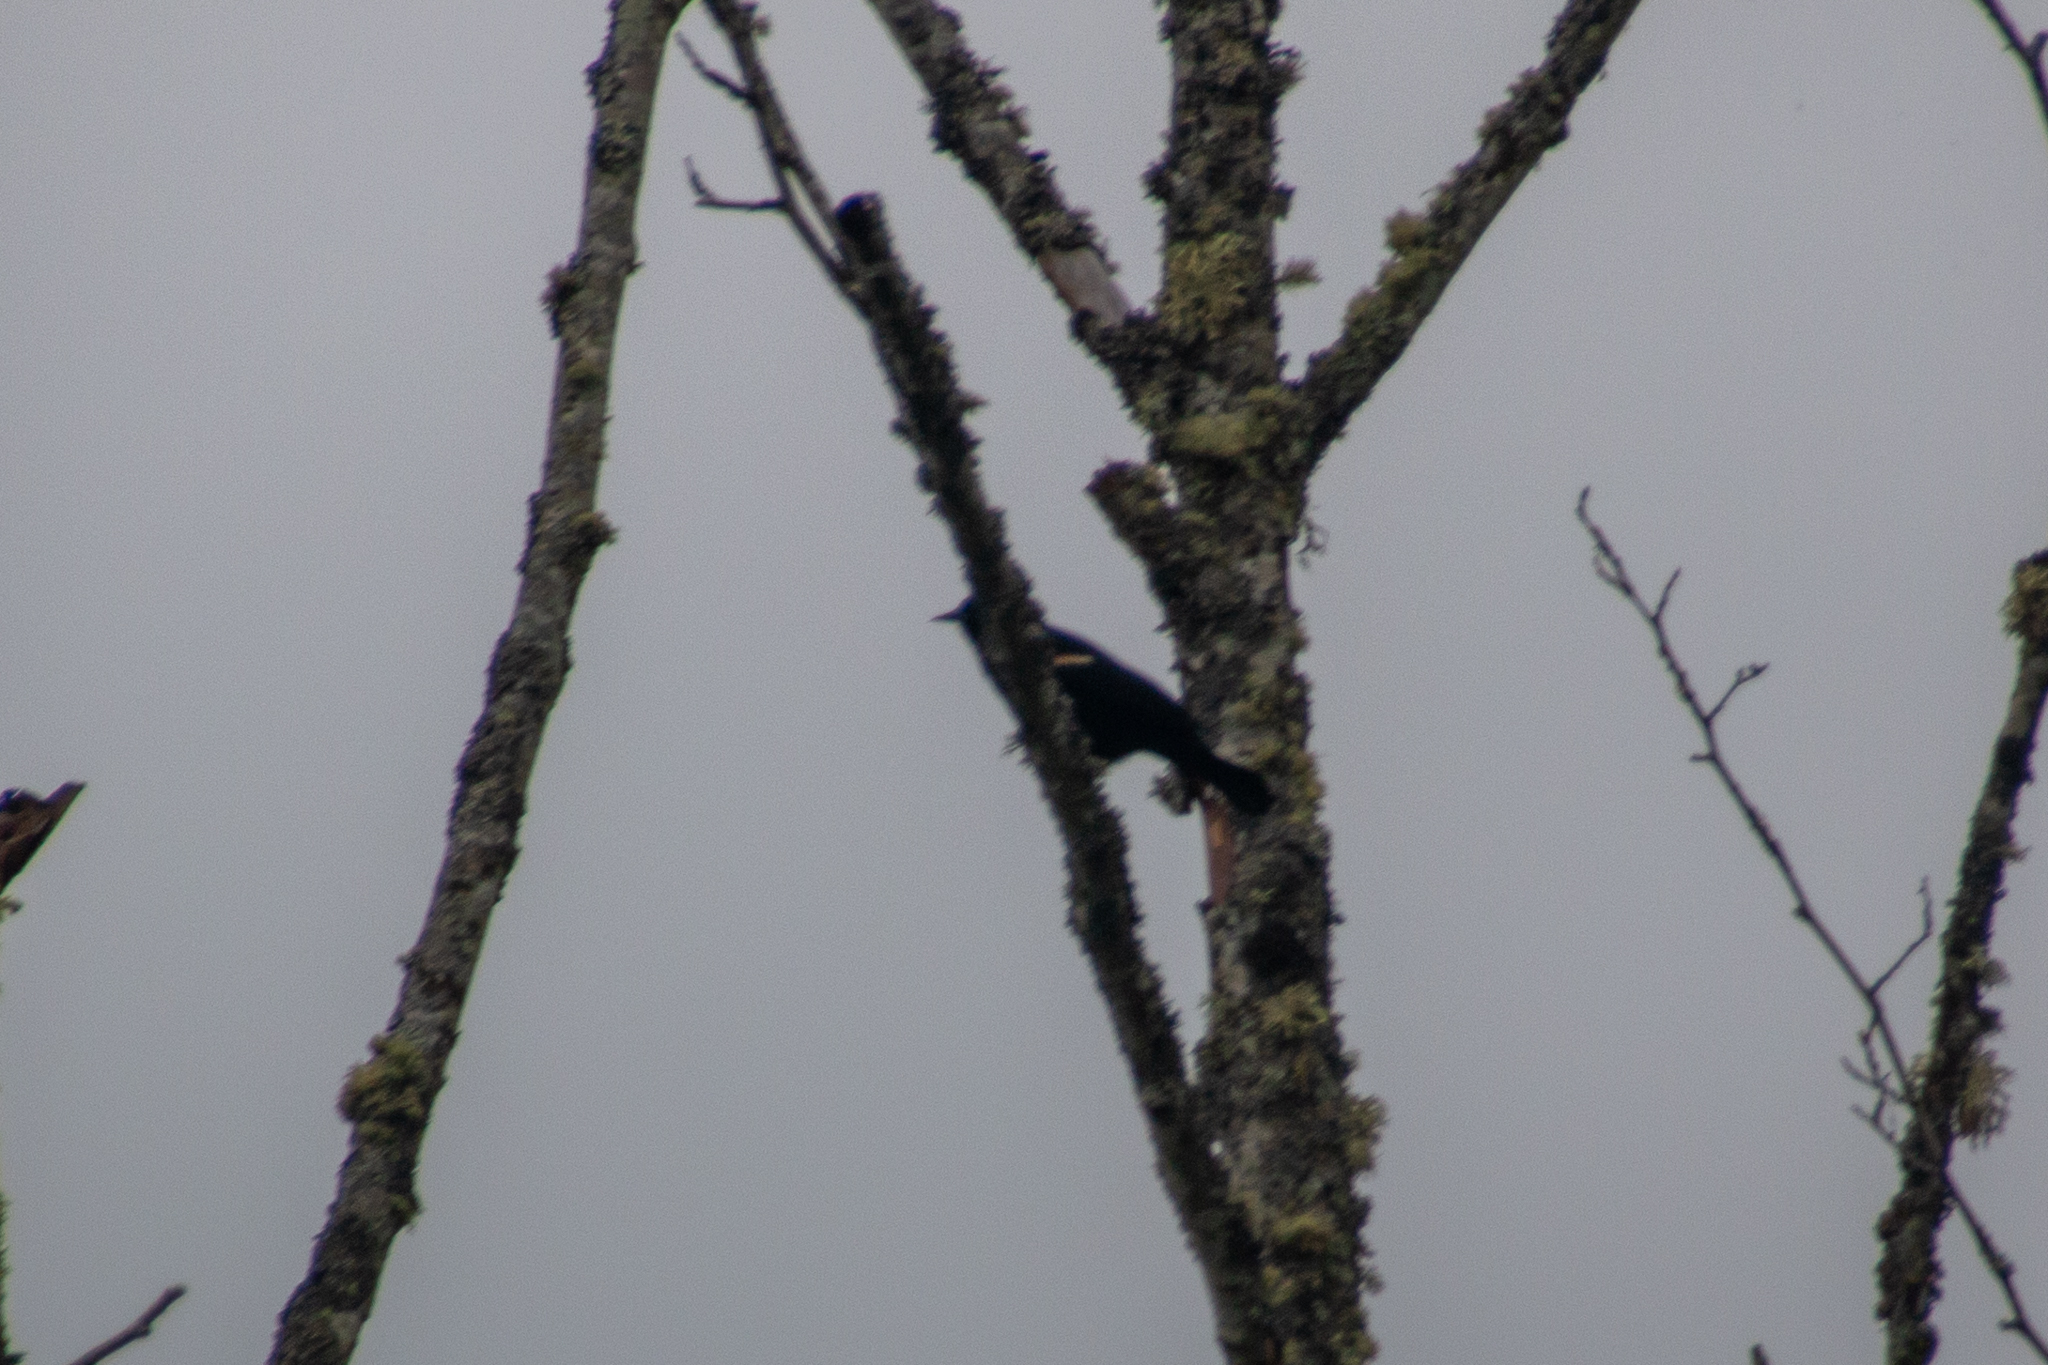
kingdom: Animalia
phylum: Chordata
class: Aves
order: Passeriformes
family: Icteridae
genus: Agelaius
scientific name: Agelaius phoeniceus
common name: Red-winged blackbird
